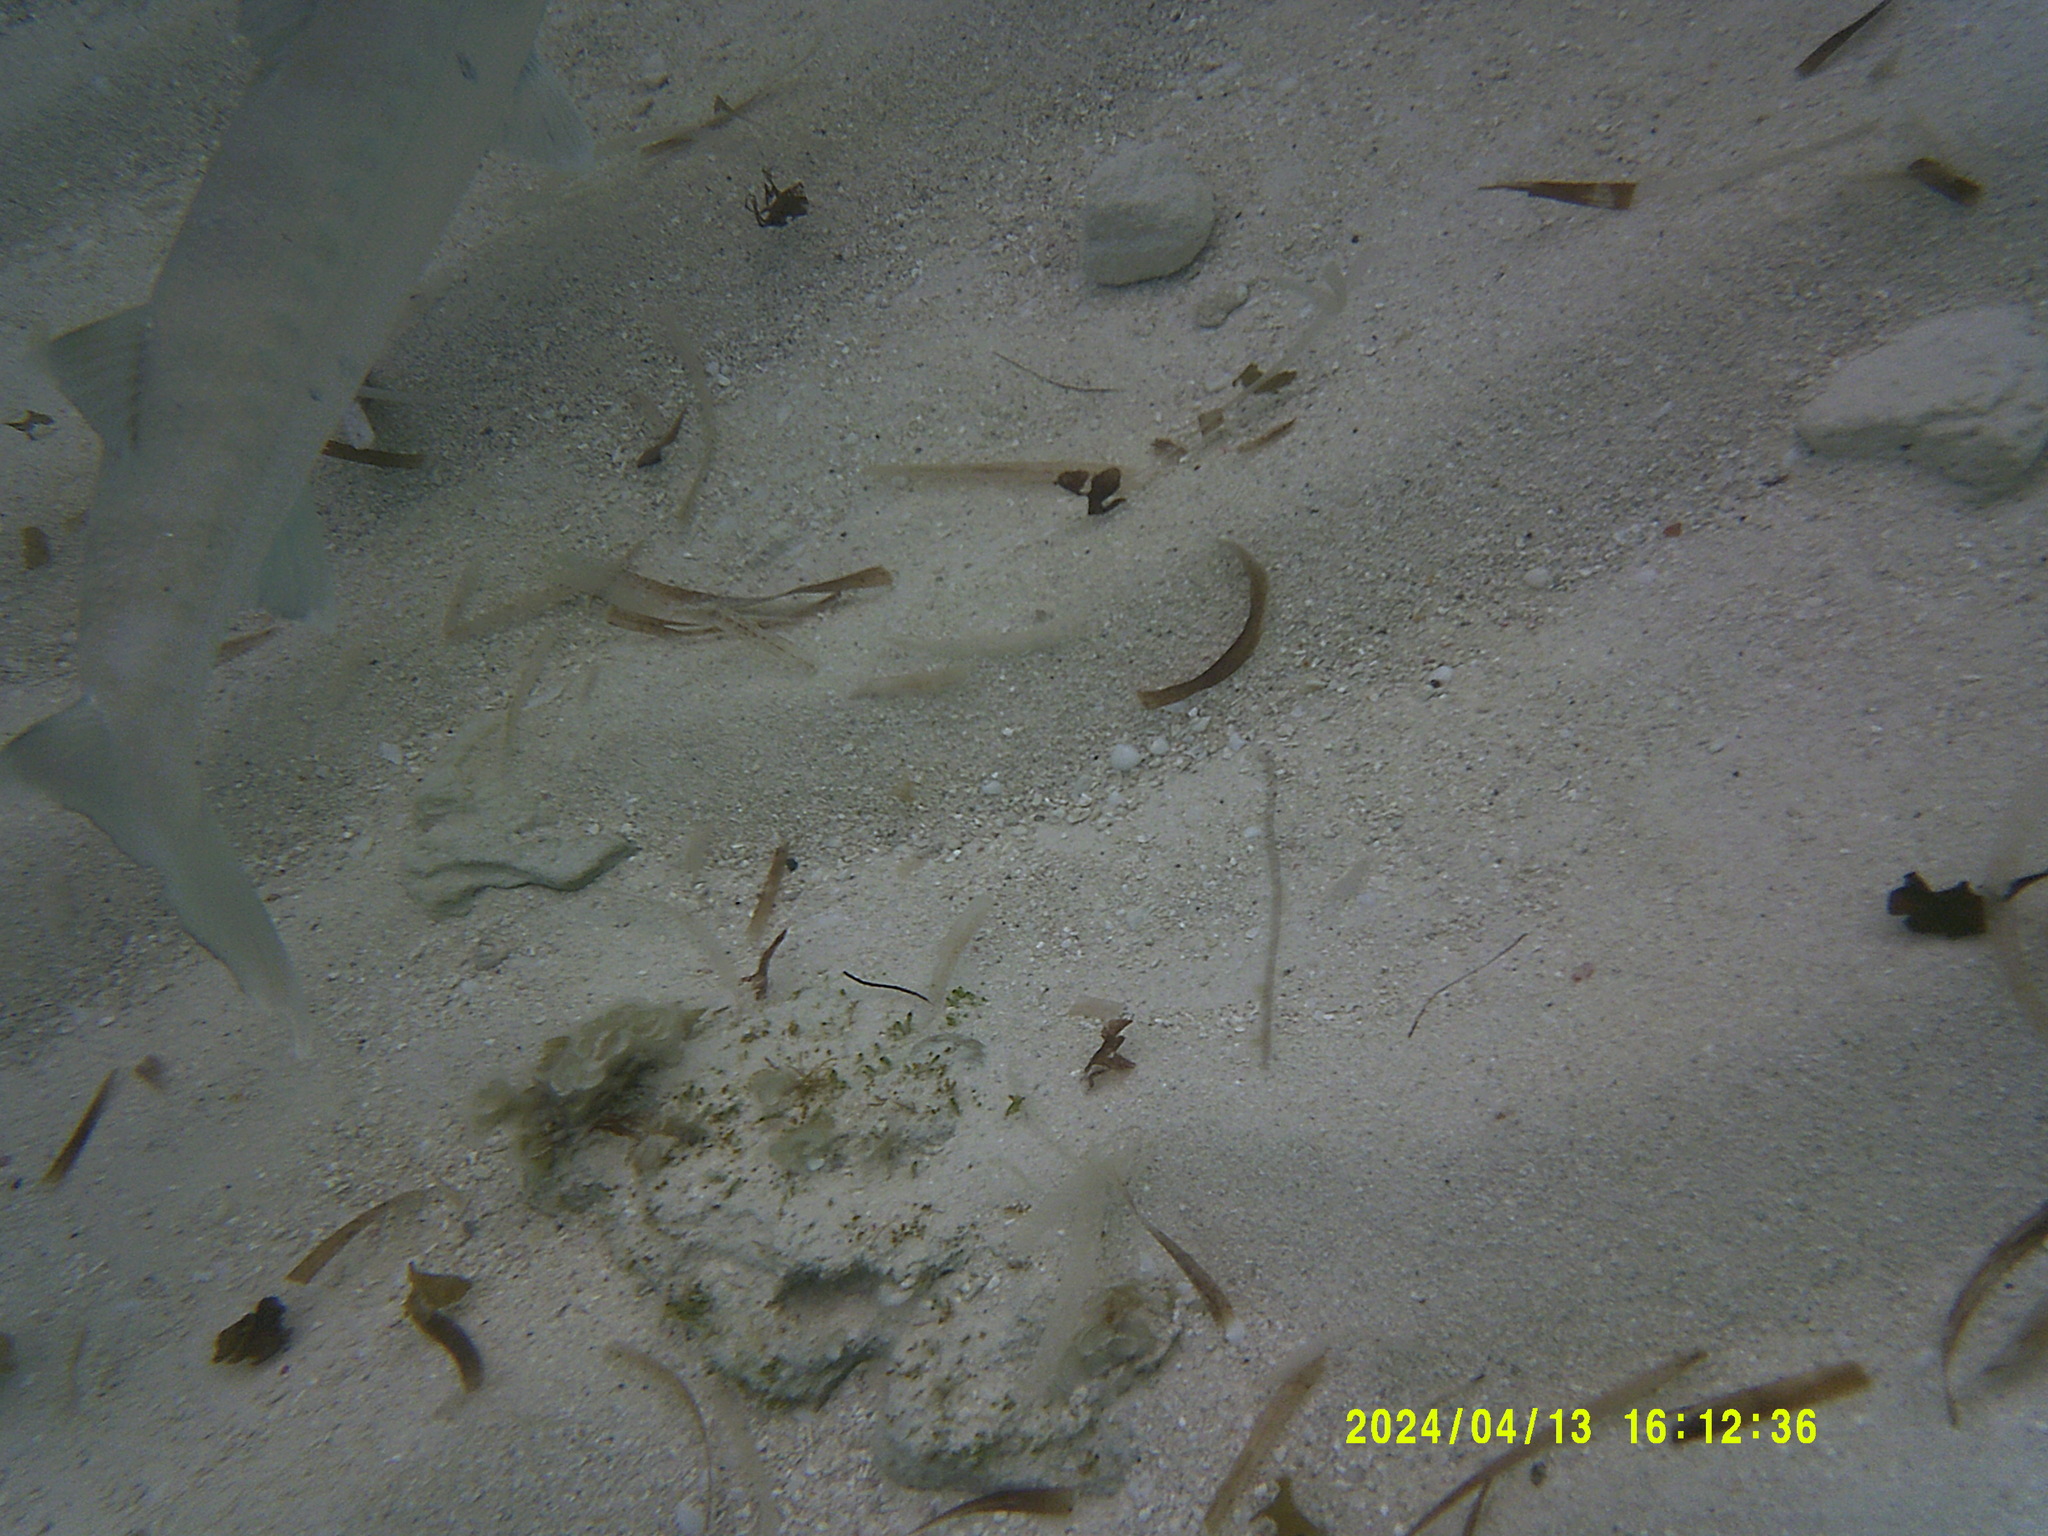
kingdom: Animalia
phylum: Chordata
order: Perciformes
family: Sphyraenidae
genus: Sphyraena
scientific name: Sphyraena barracuda
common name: Great barracuda
